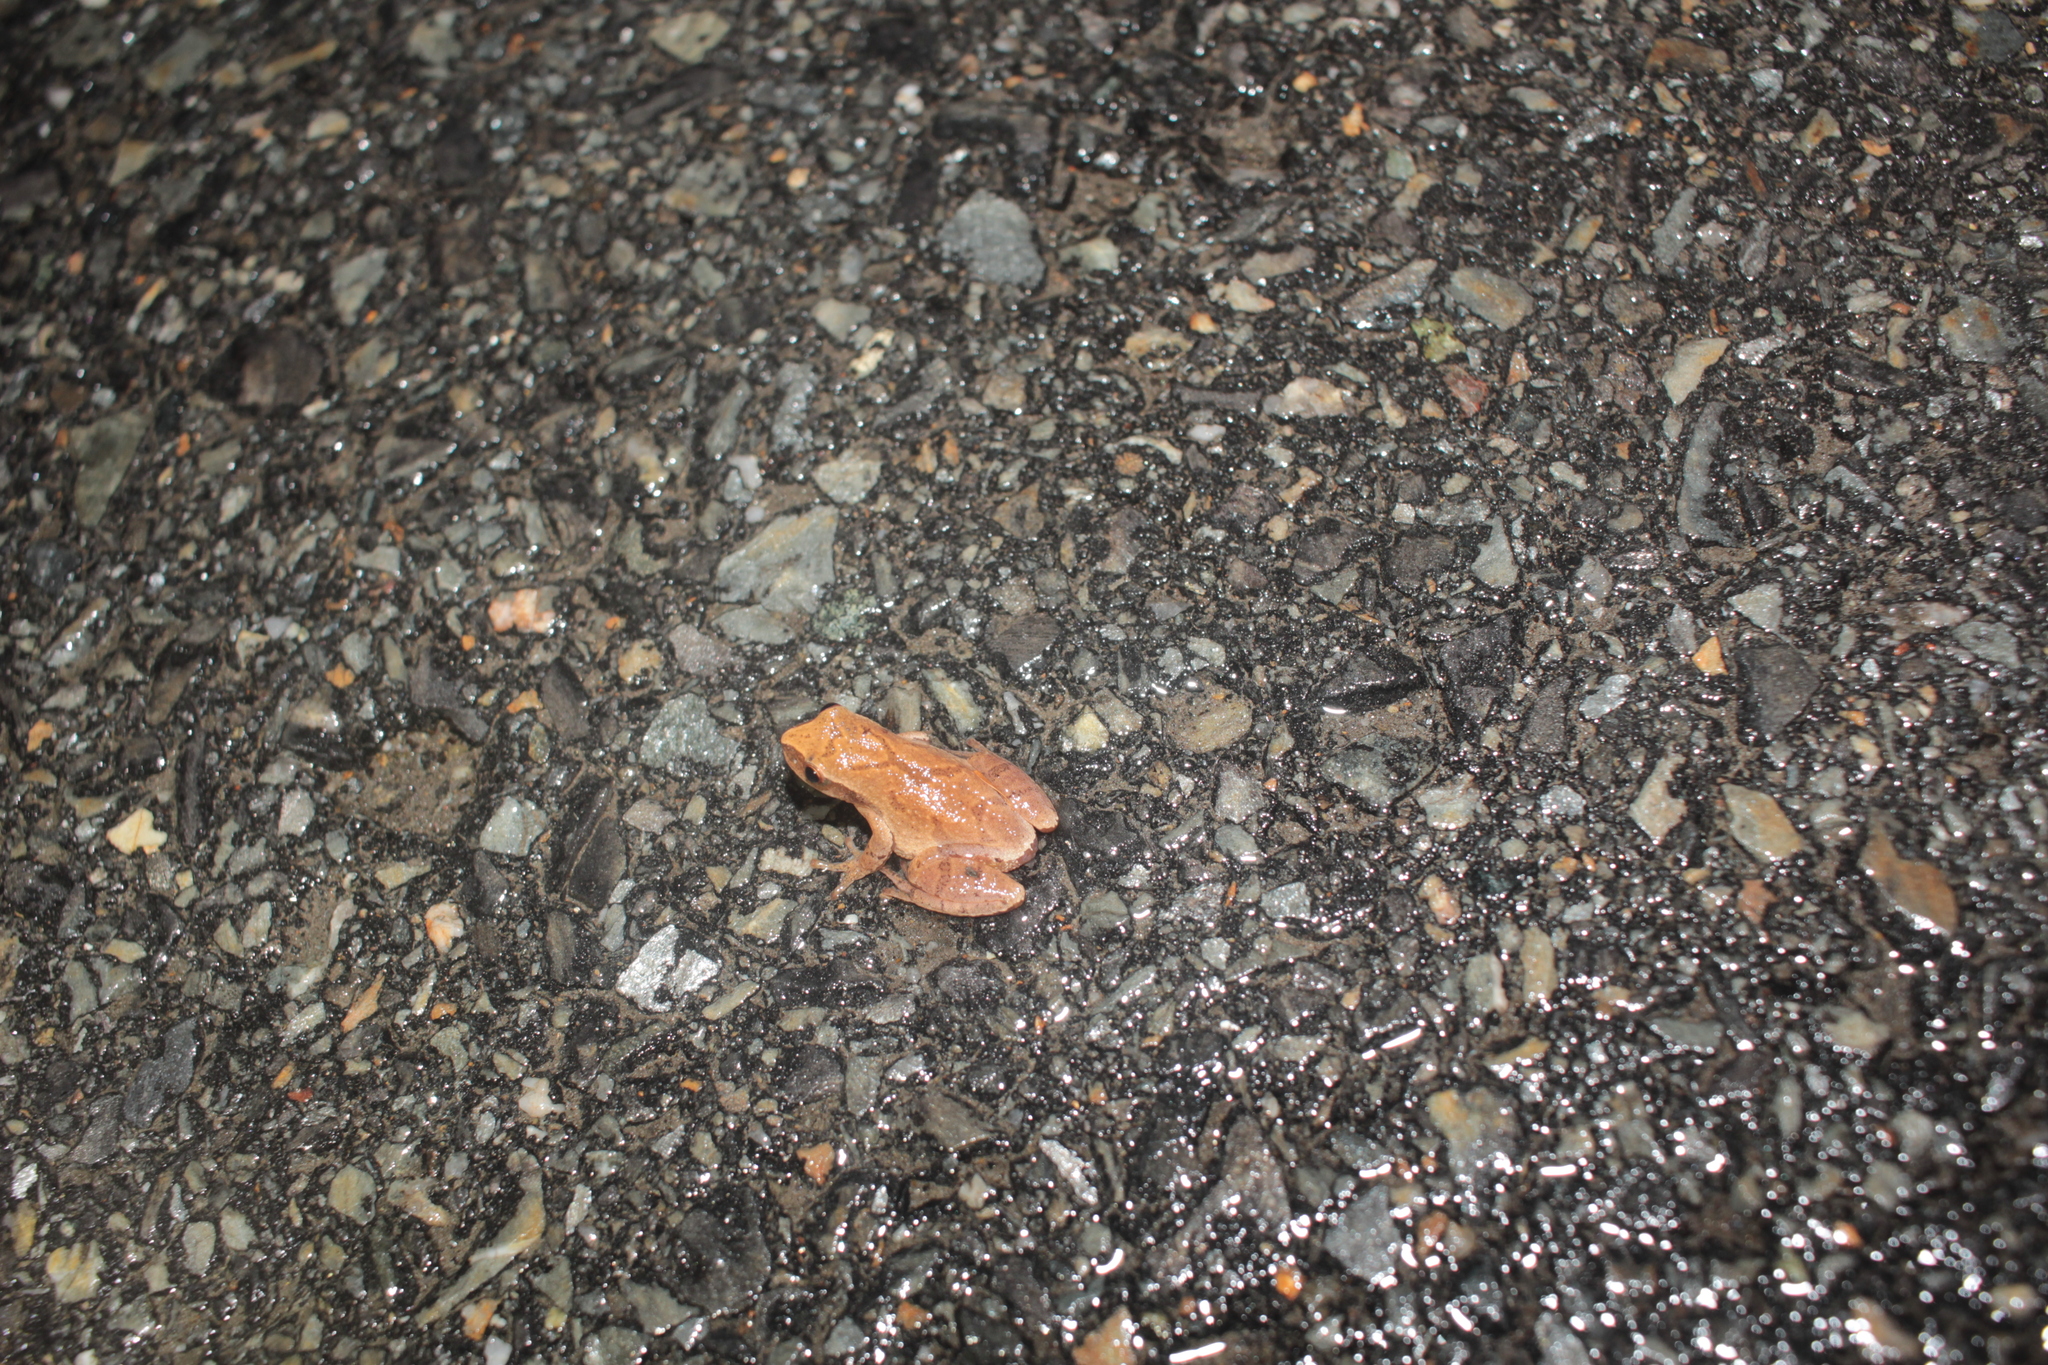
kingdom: Animalia
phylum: Chordata
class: Amphibia
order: Anura
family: Hylidae
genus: Pseudacris
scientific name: Pseudacris crucifer
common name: Spring peeper
